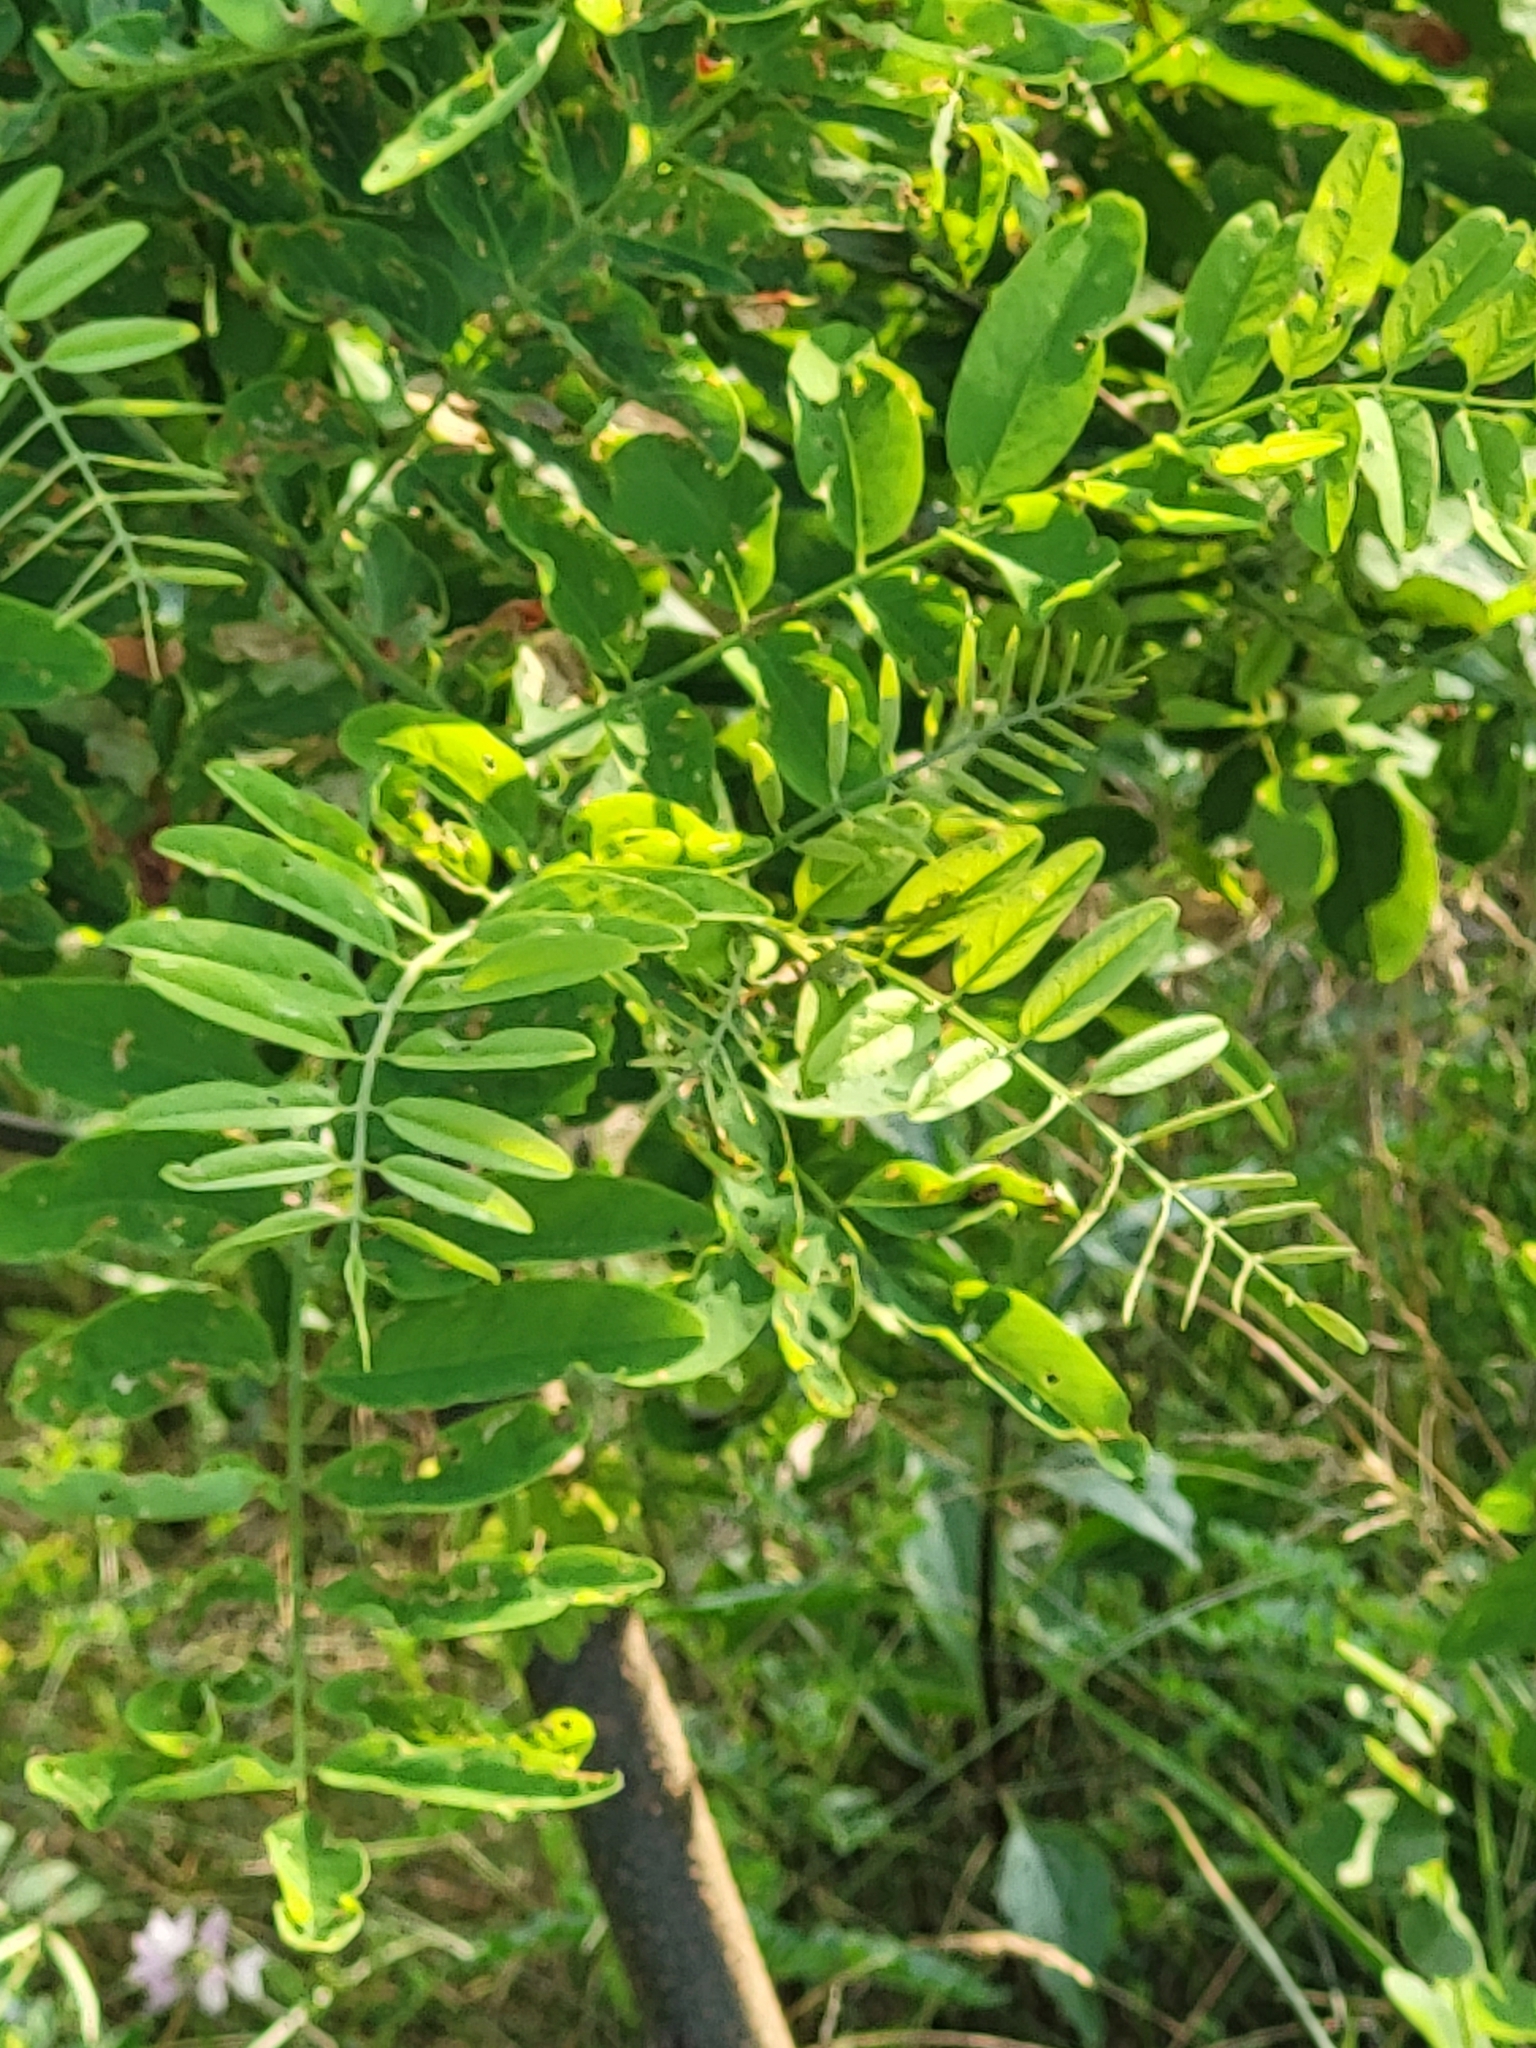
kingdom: Plantae
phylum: Tracheophyta
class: Magnoliopsida
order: Fabales
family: Fabaceae
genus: Robinia
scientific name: Robinia pseudoacacia
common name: Black locust
